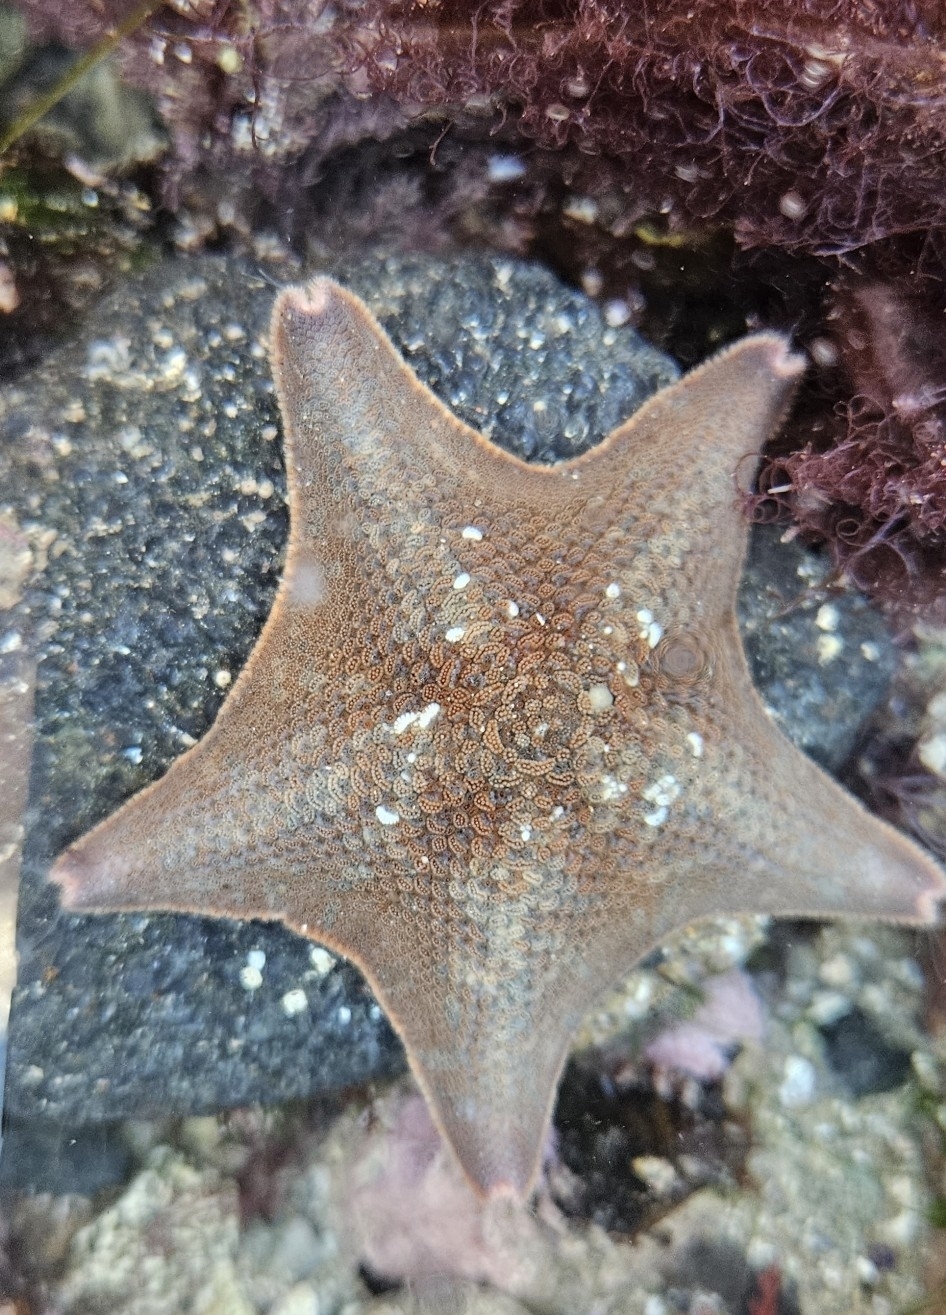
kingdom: Animalia
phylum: Echinodermata
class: Asteroidea
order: Valvatida
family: Asterinidae
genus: Patiria
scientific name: Patiria miniata
